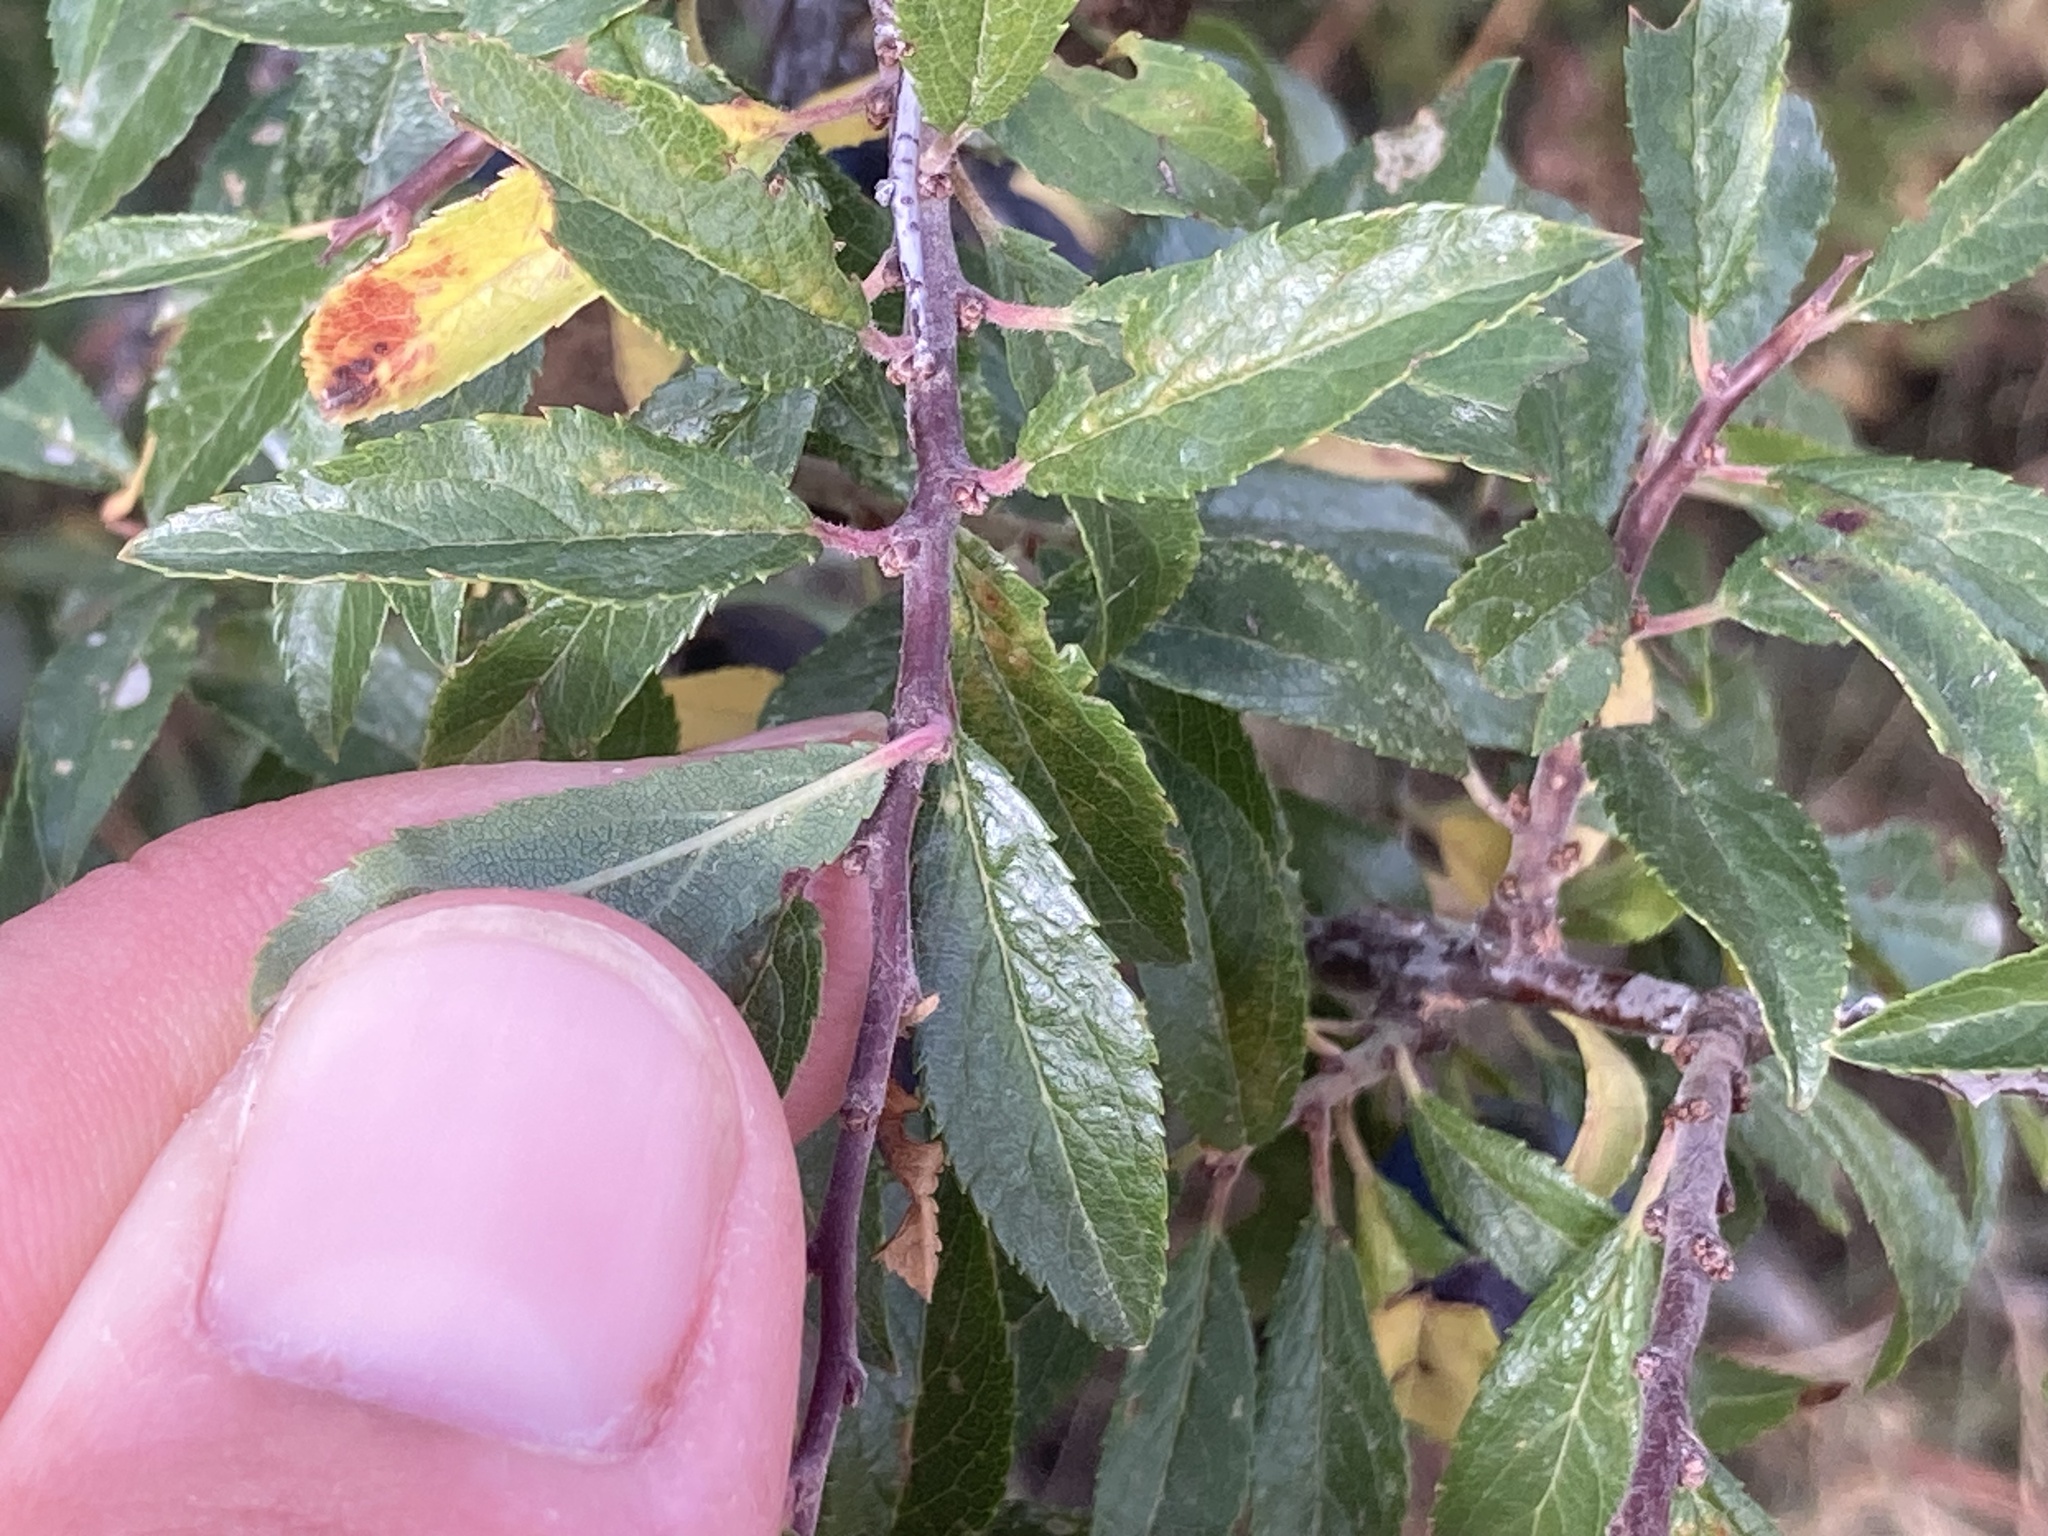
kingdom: Plantae
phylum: Tracheophyta
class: Magnoliopsida
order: Rosales
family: Rosaceae
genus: Prunus
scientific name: Prunus spinosa
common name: Blackthorn
